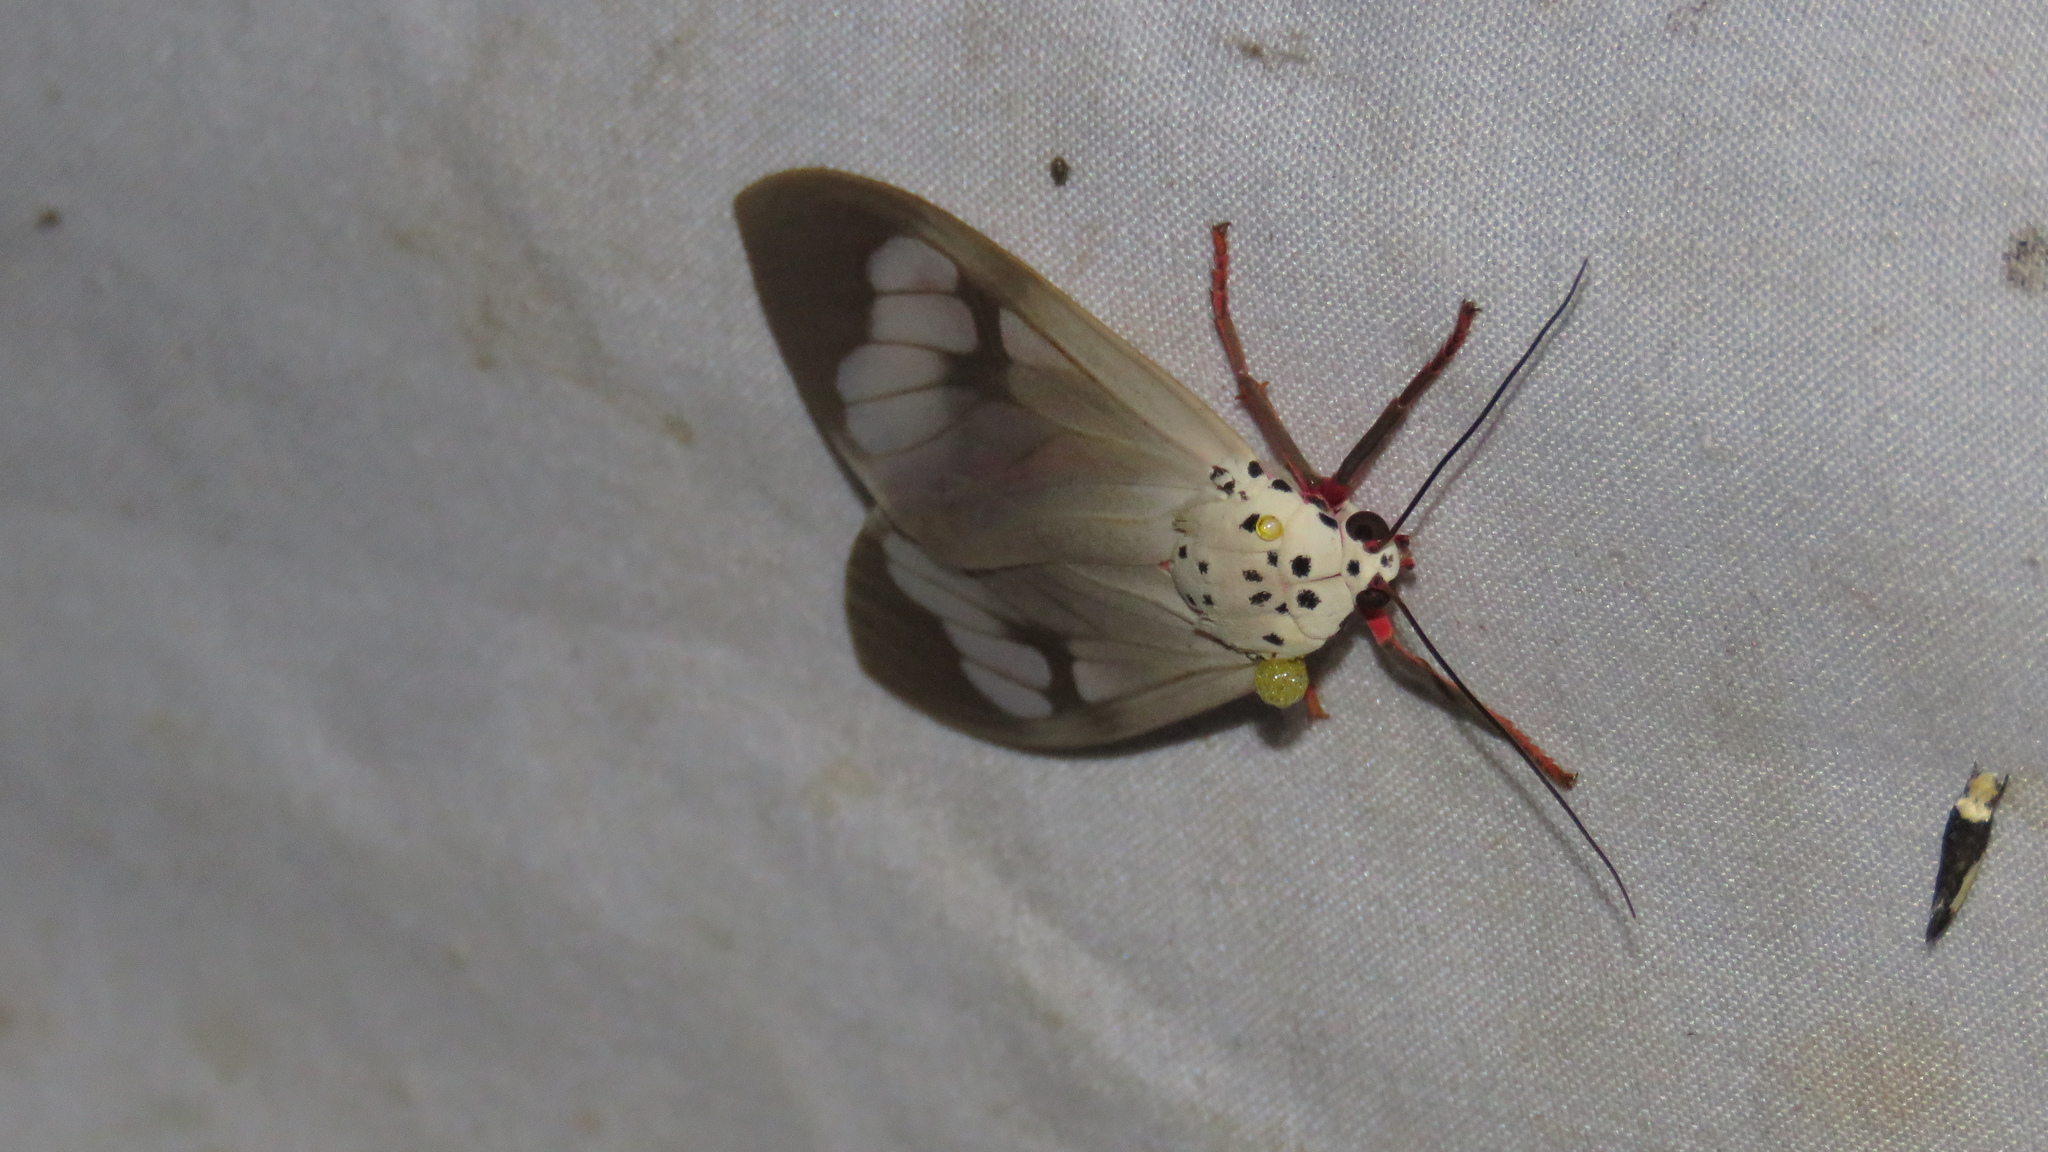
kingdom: Animalia
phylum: Arthropoda
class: Insecta
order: Lepidoptera
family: Erebidae
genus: Amerila
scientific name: Amerila astreus
